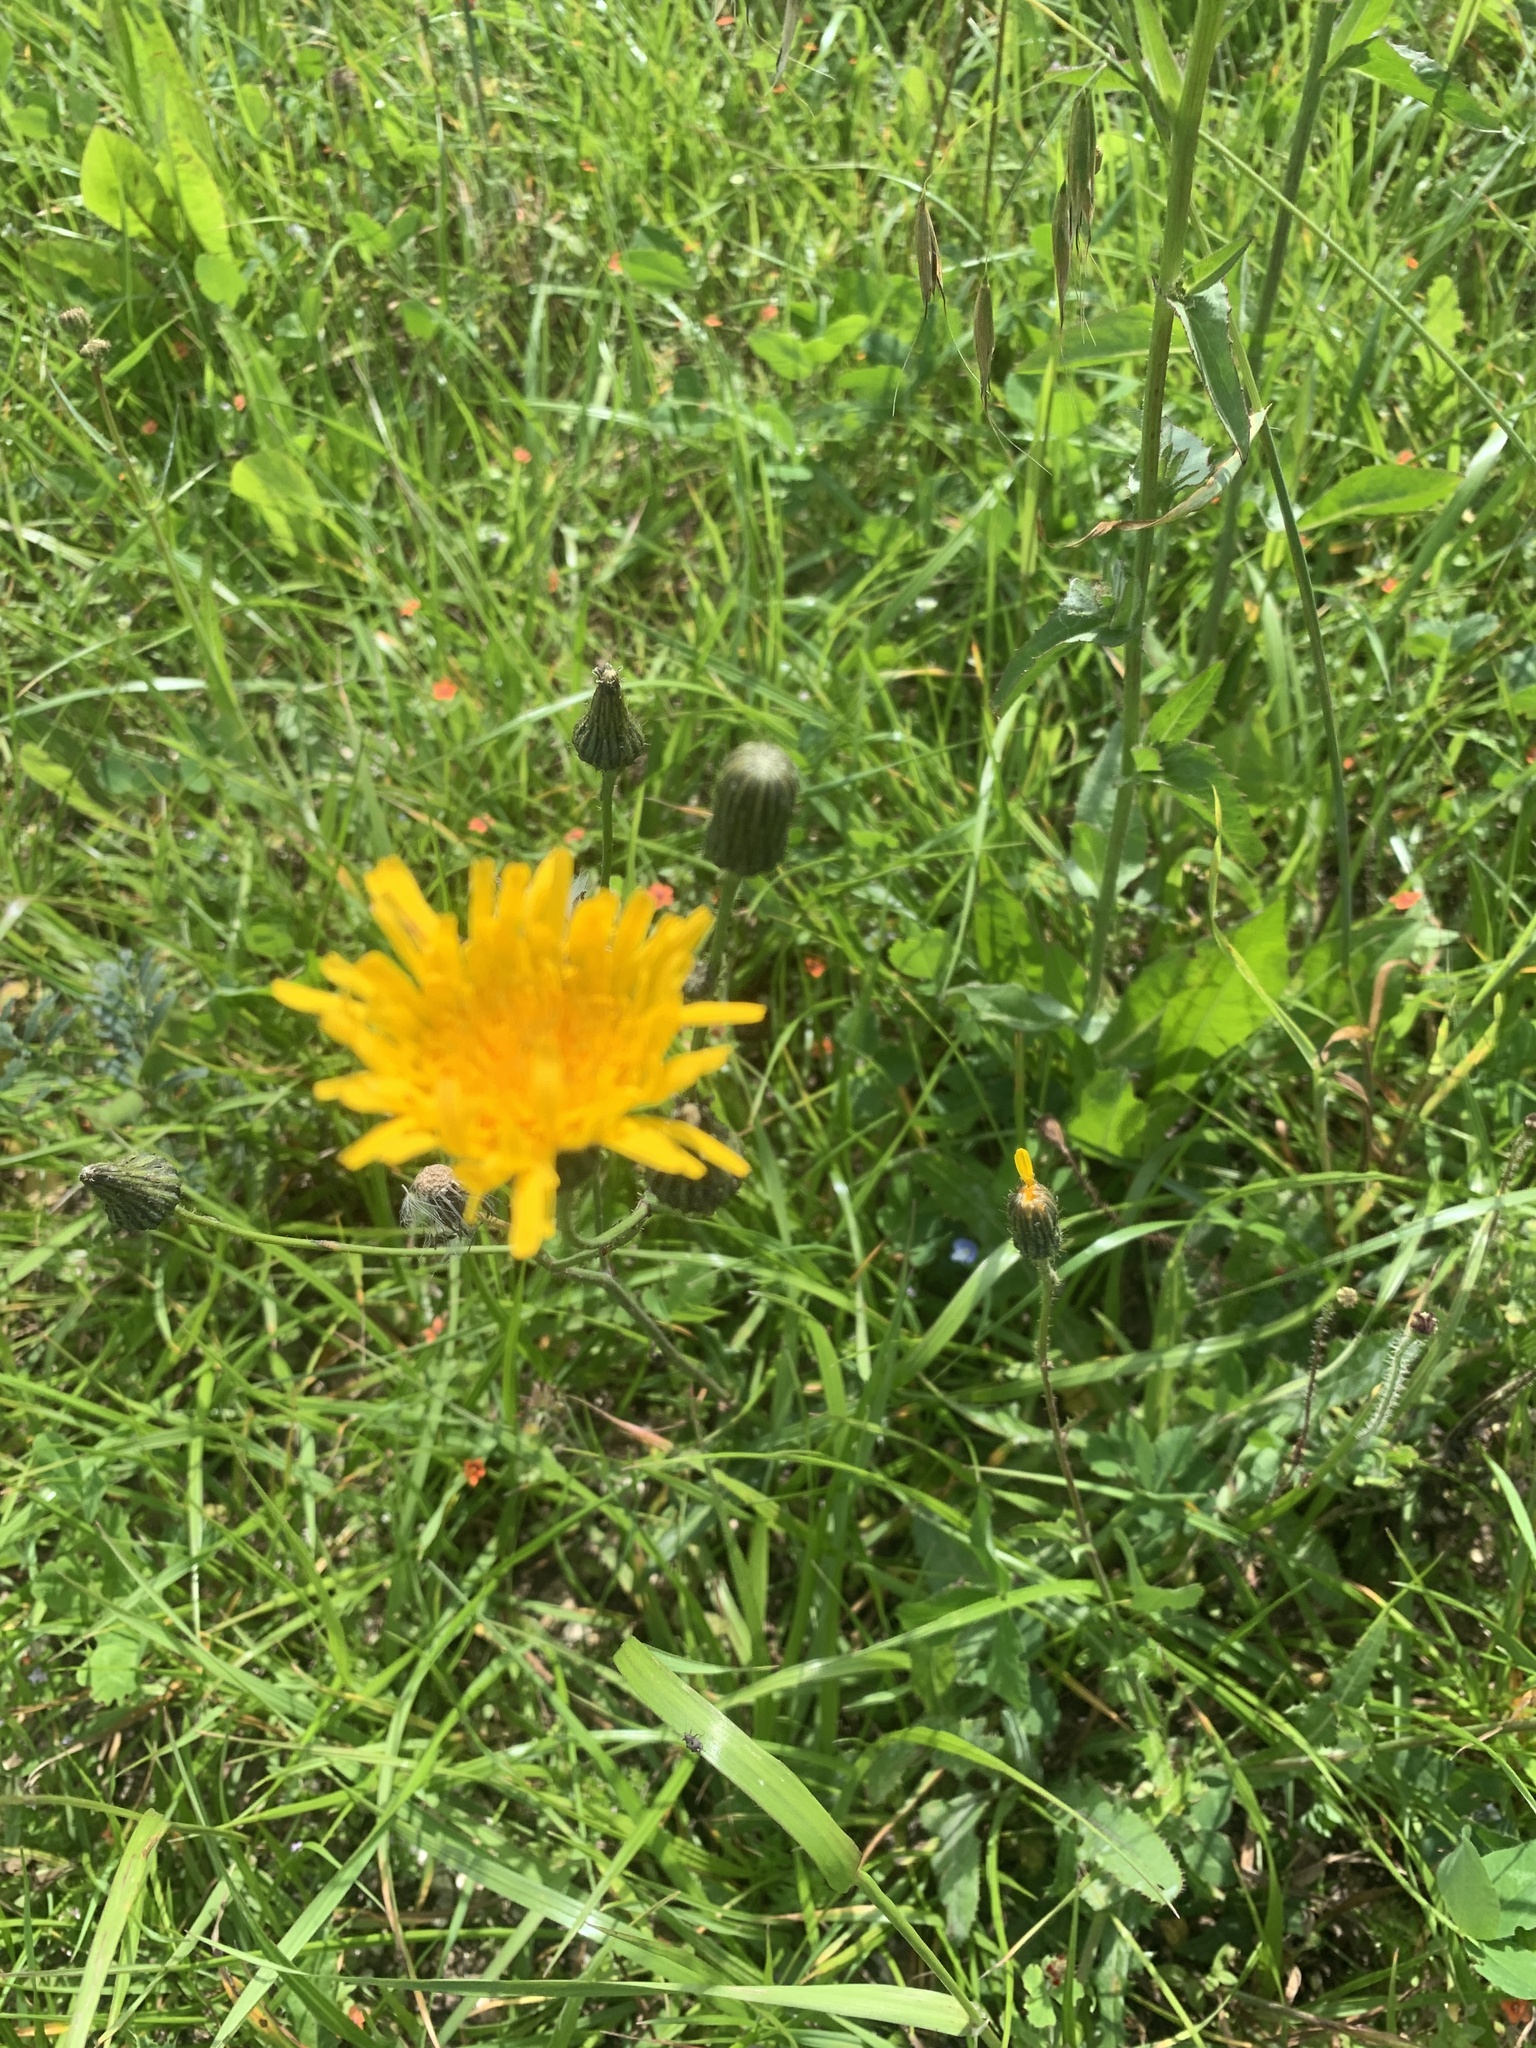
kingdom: Plantae
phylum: Tracheophyta
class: Magnoliopsida
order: Asterales
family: Asteraceae
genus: Taraxacum
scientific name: Taraxacum officinale
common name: Common dandelion
